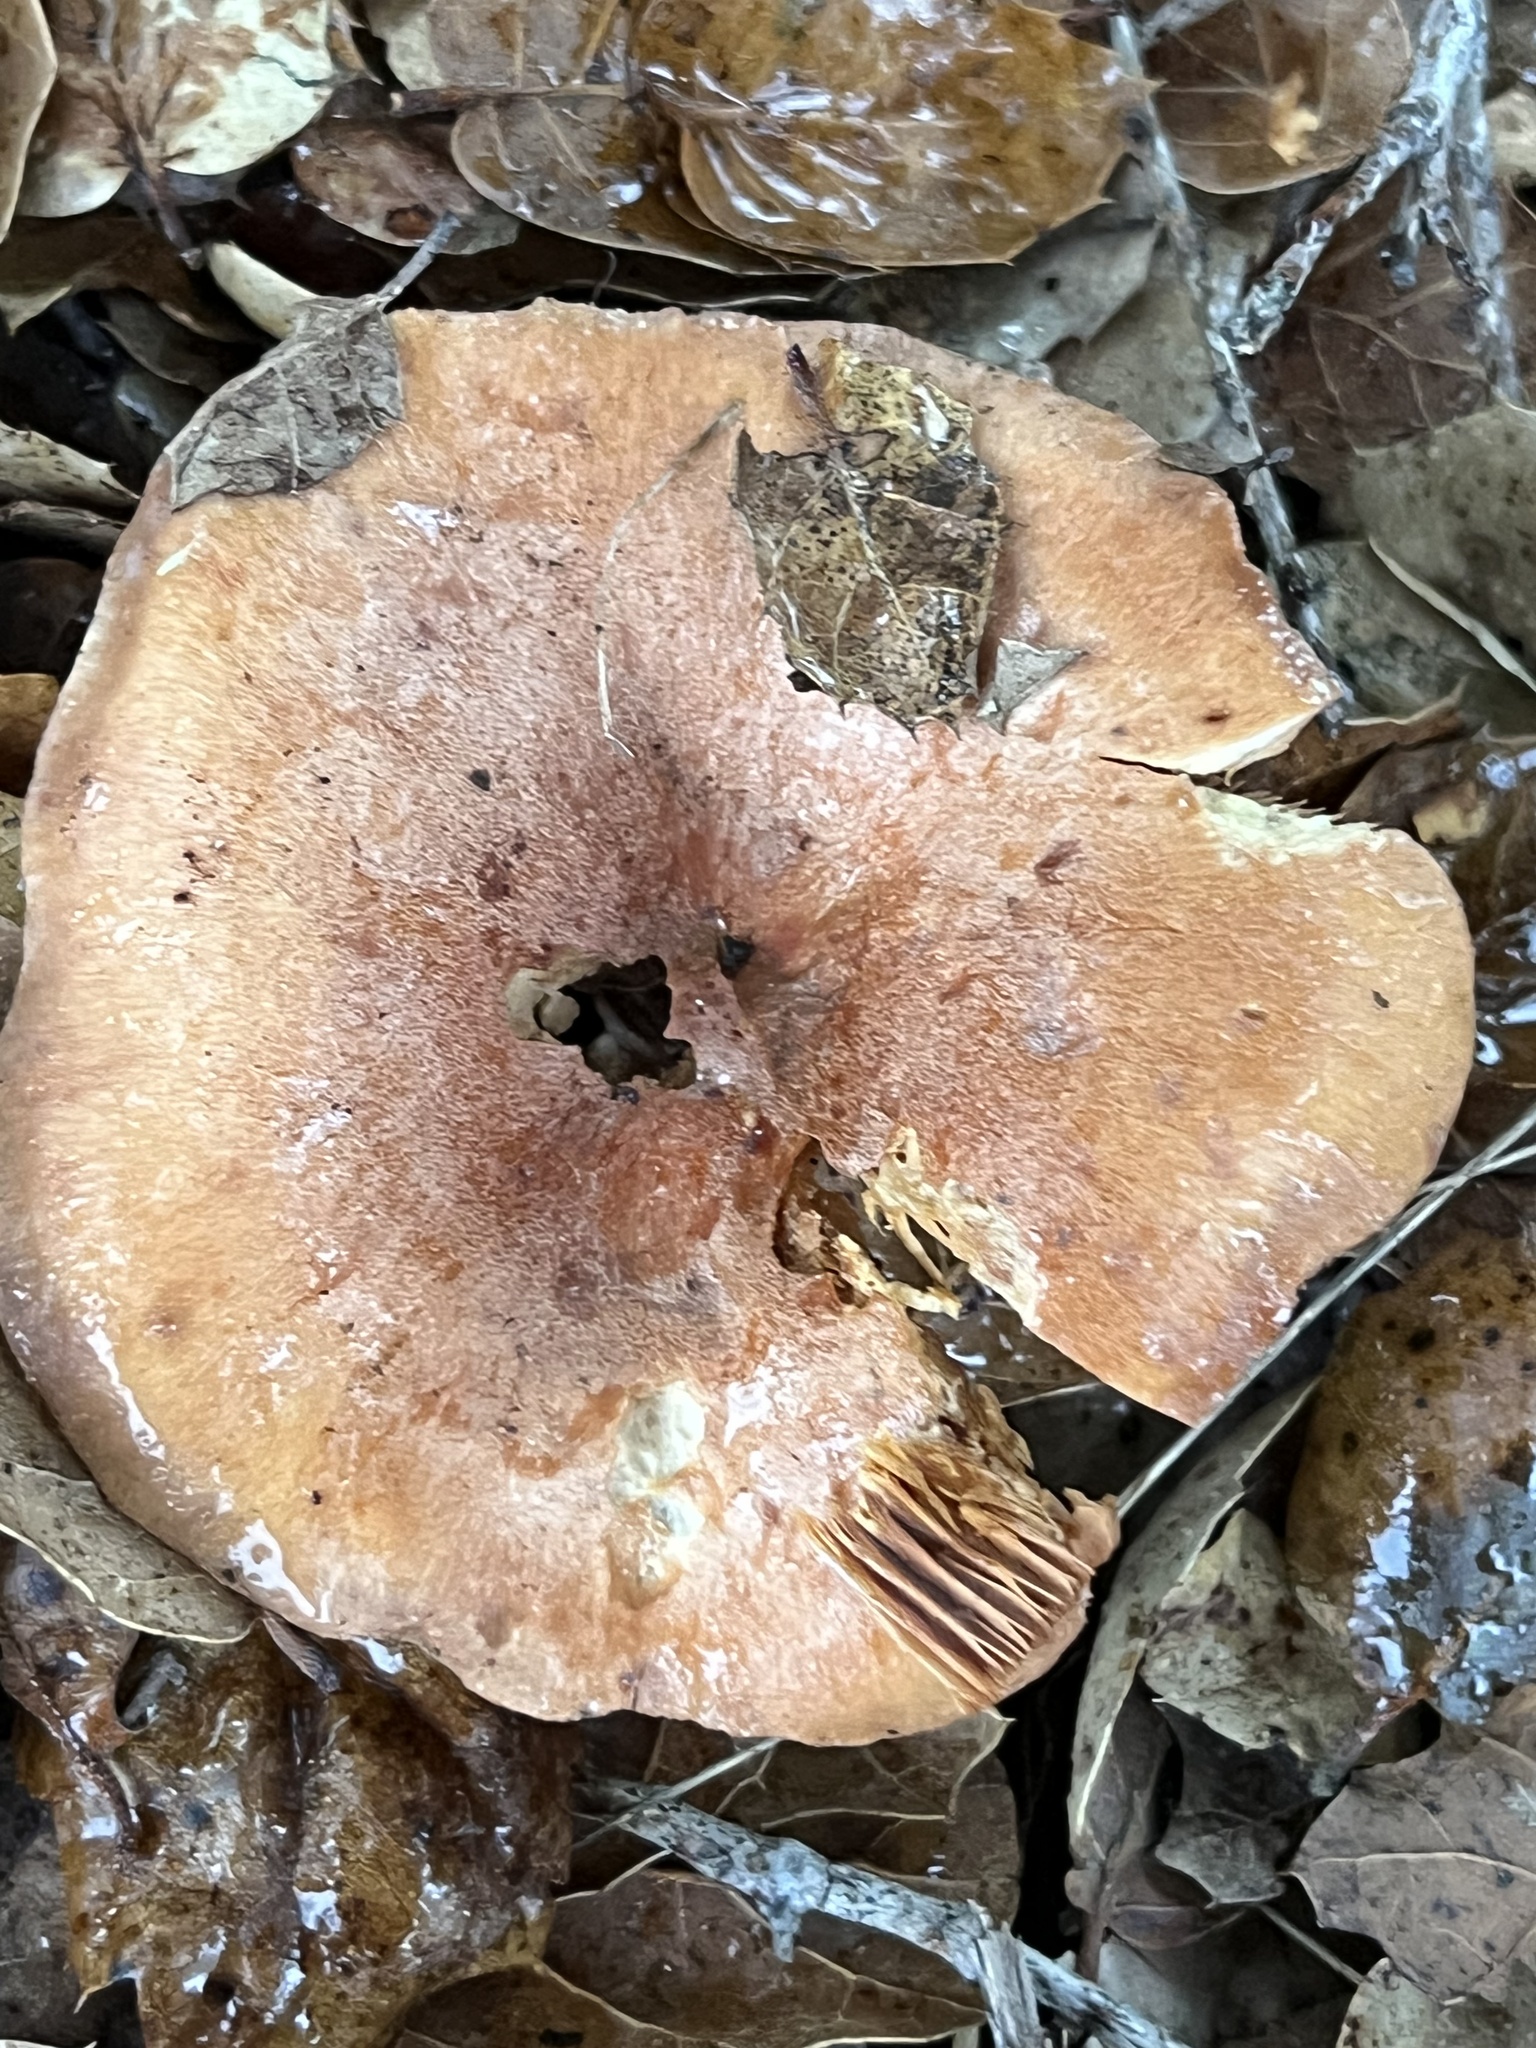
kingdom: Fungi
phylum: Basidiomycota
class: Agaricomycetes
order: Russulales
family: Russulaceae
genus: Lactarius
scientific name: Lactarius xanthogalactus
